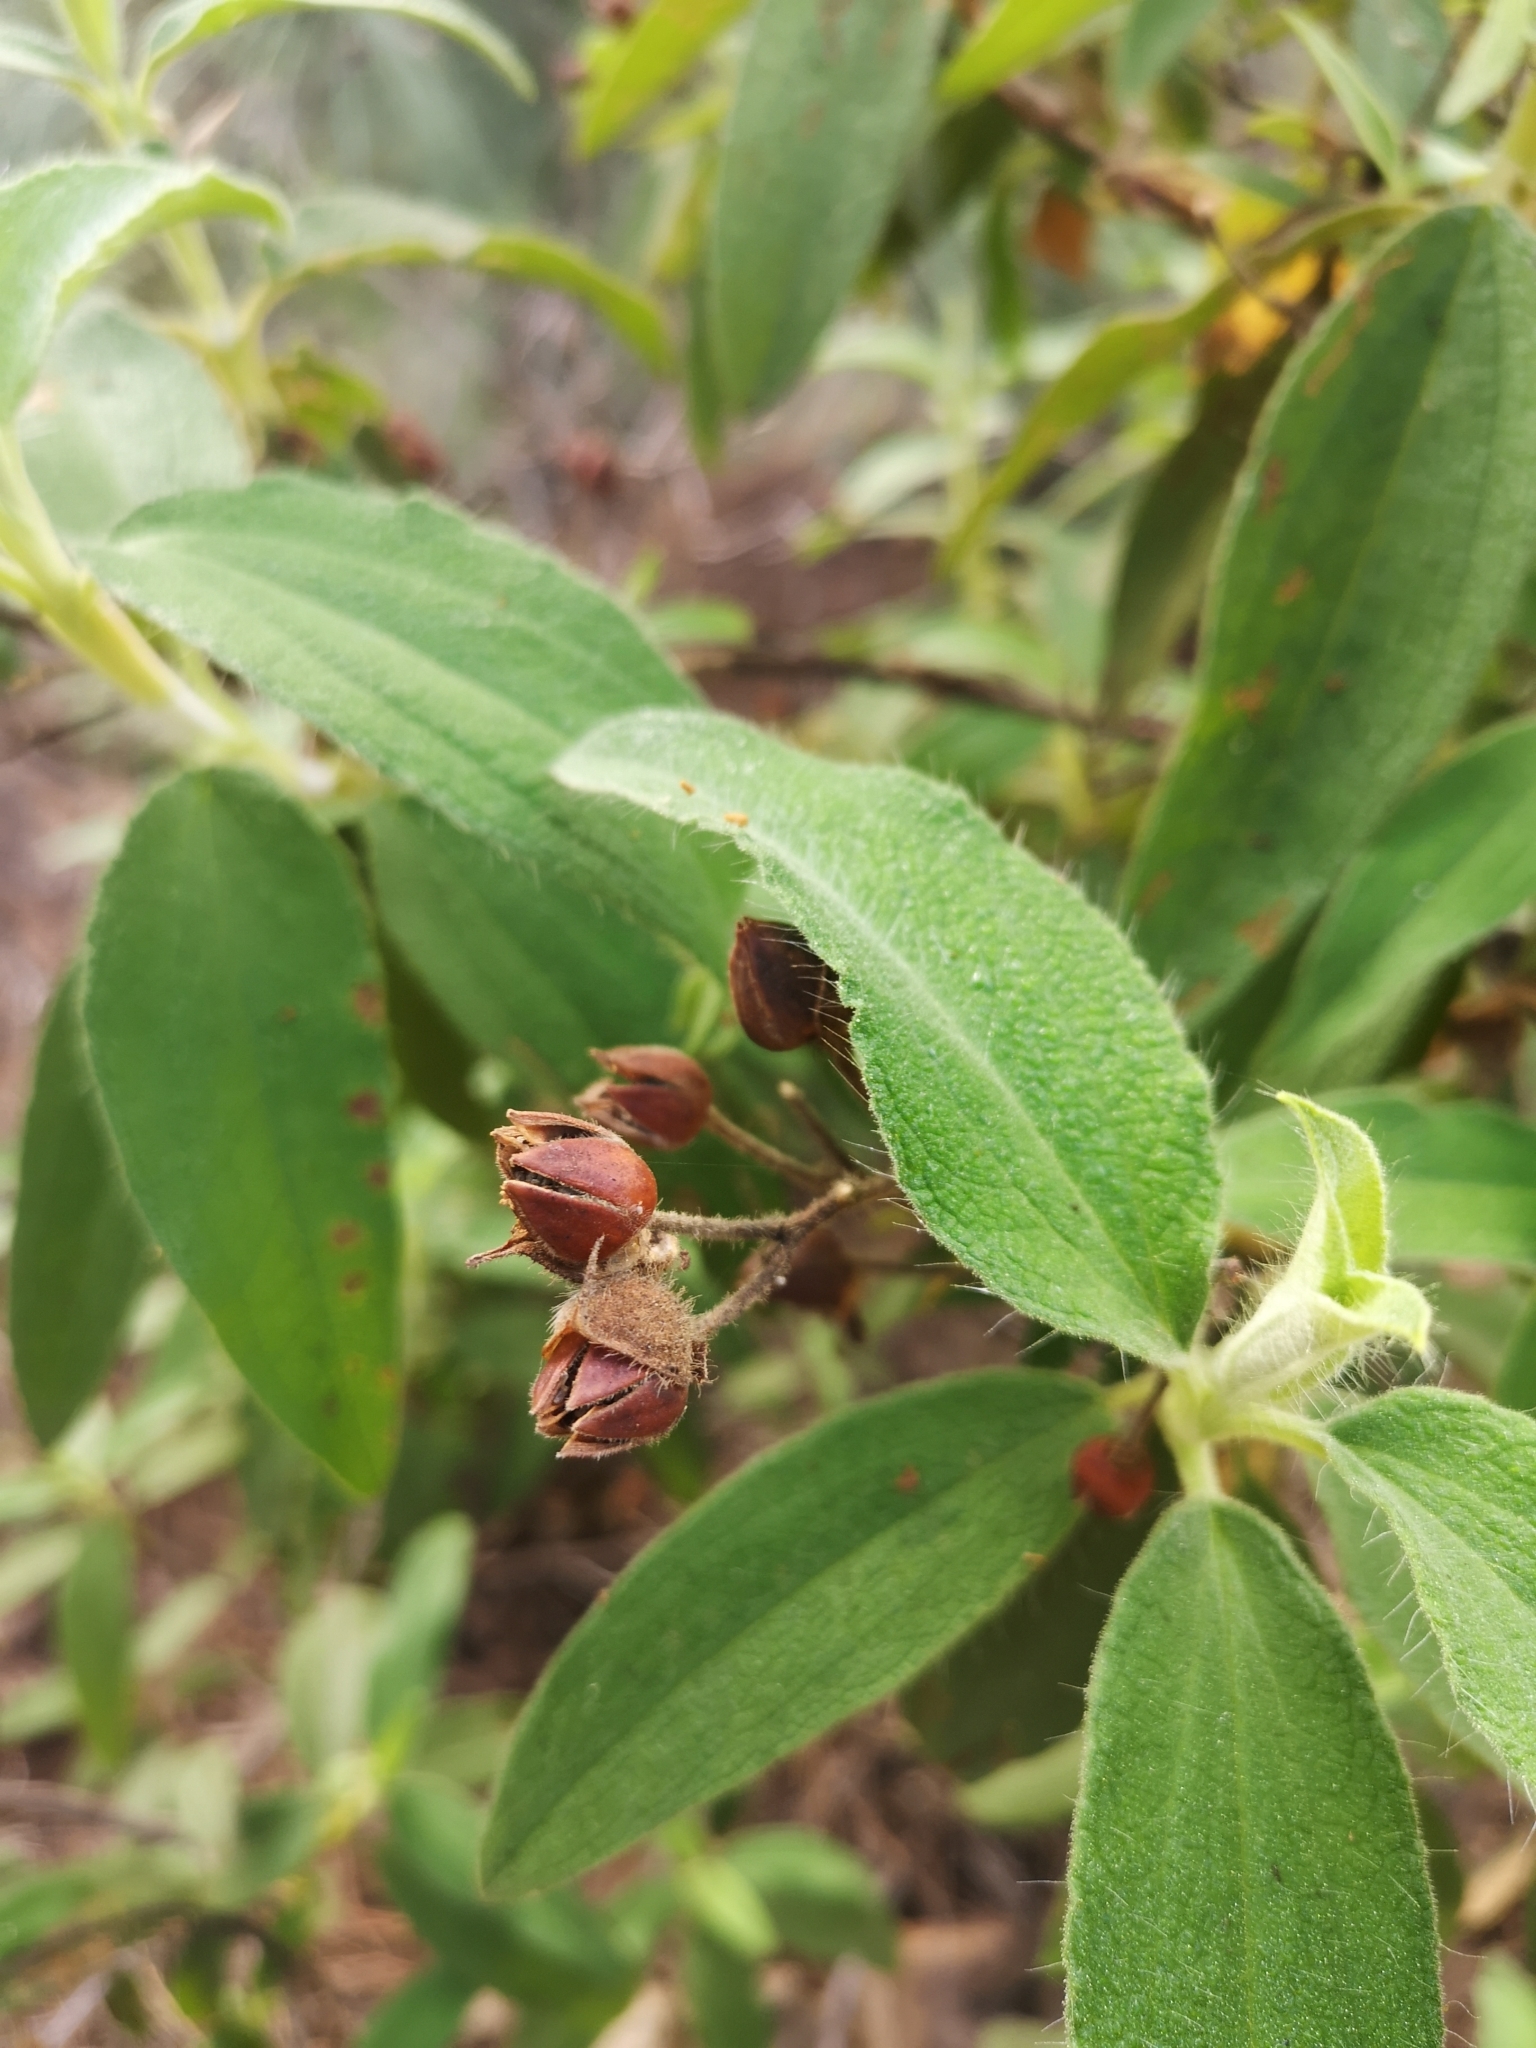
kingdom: Plantae
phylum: Tracheophyta
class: Magnoliopsida
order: Malvales
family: Cistaceae
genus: Cistus
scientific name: Cistus symphytifolius
